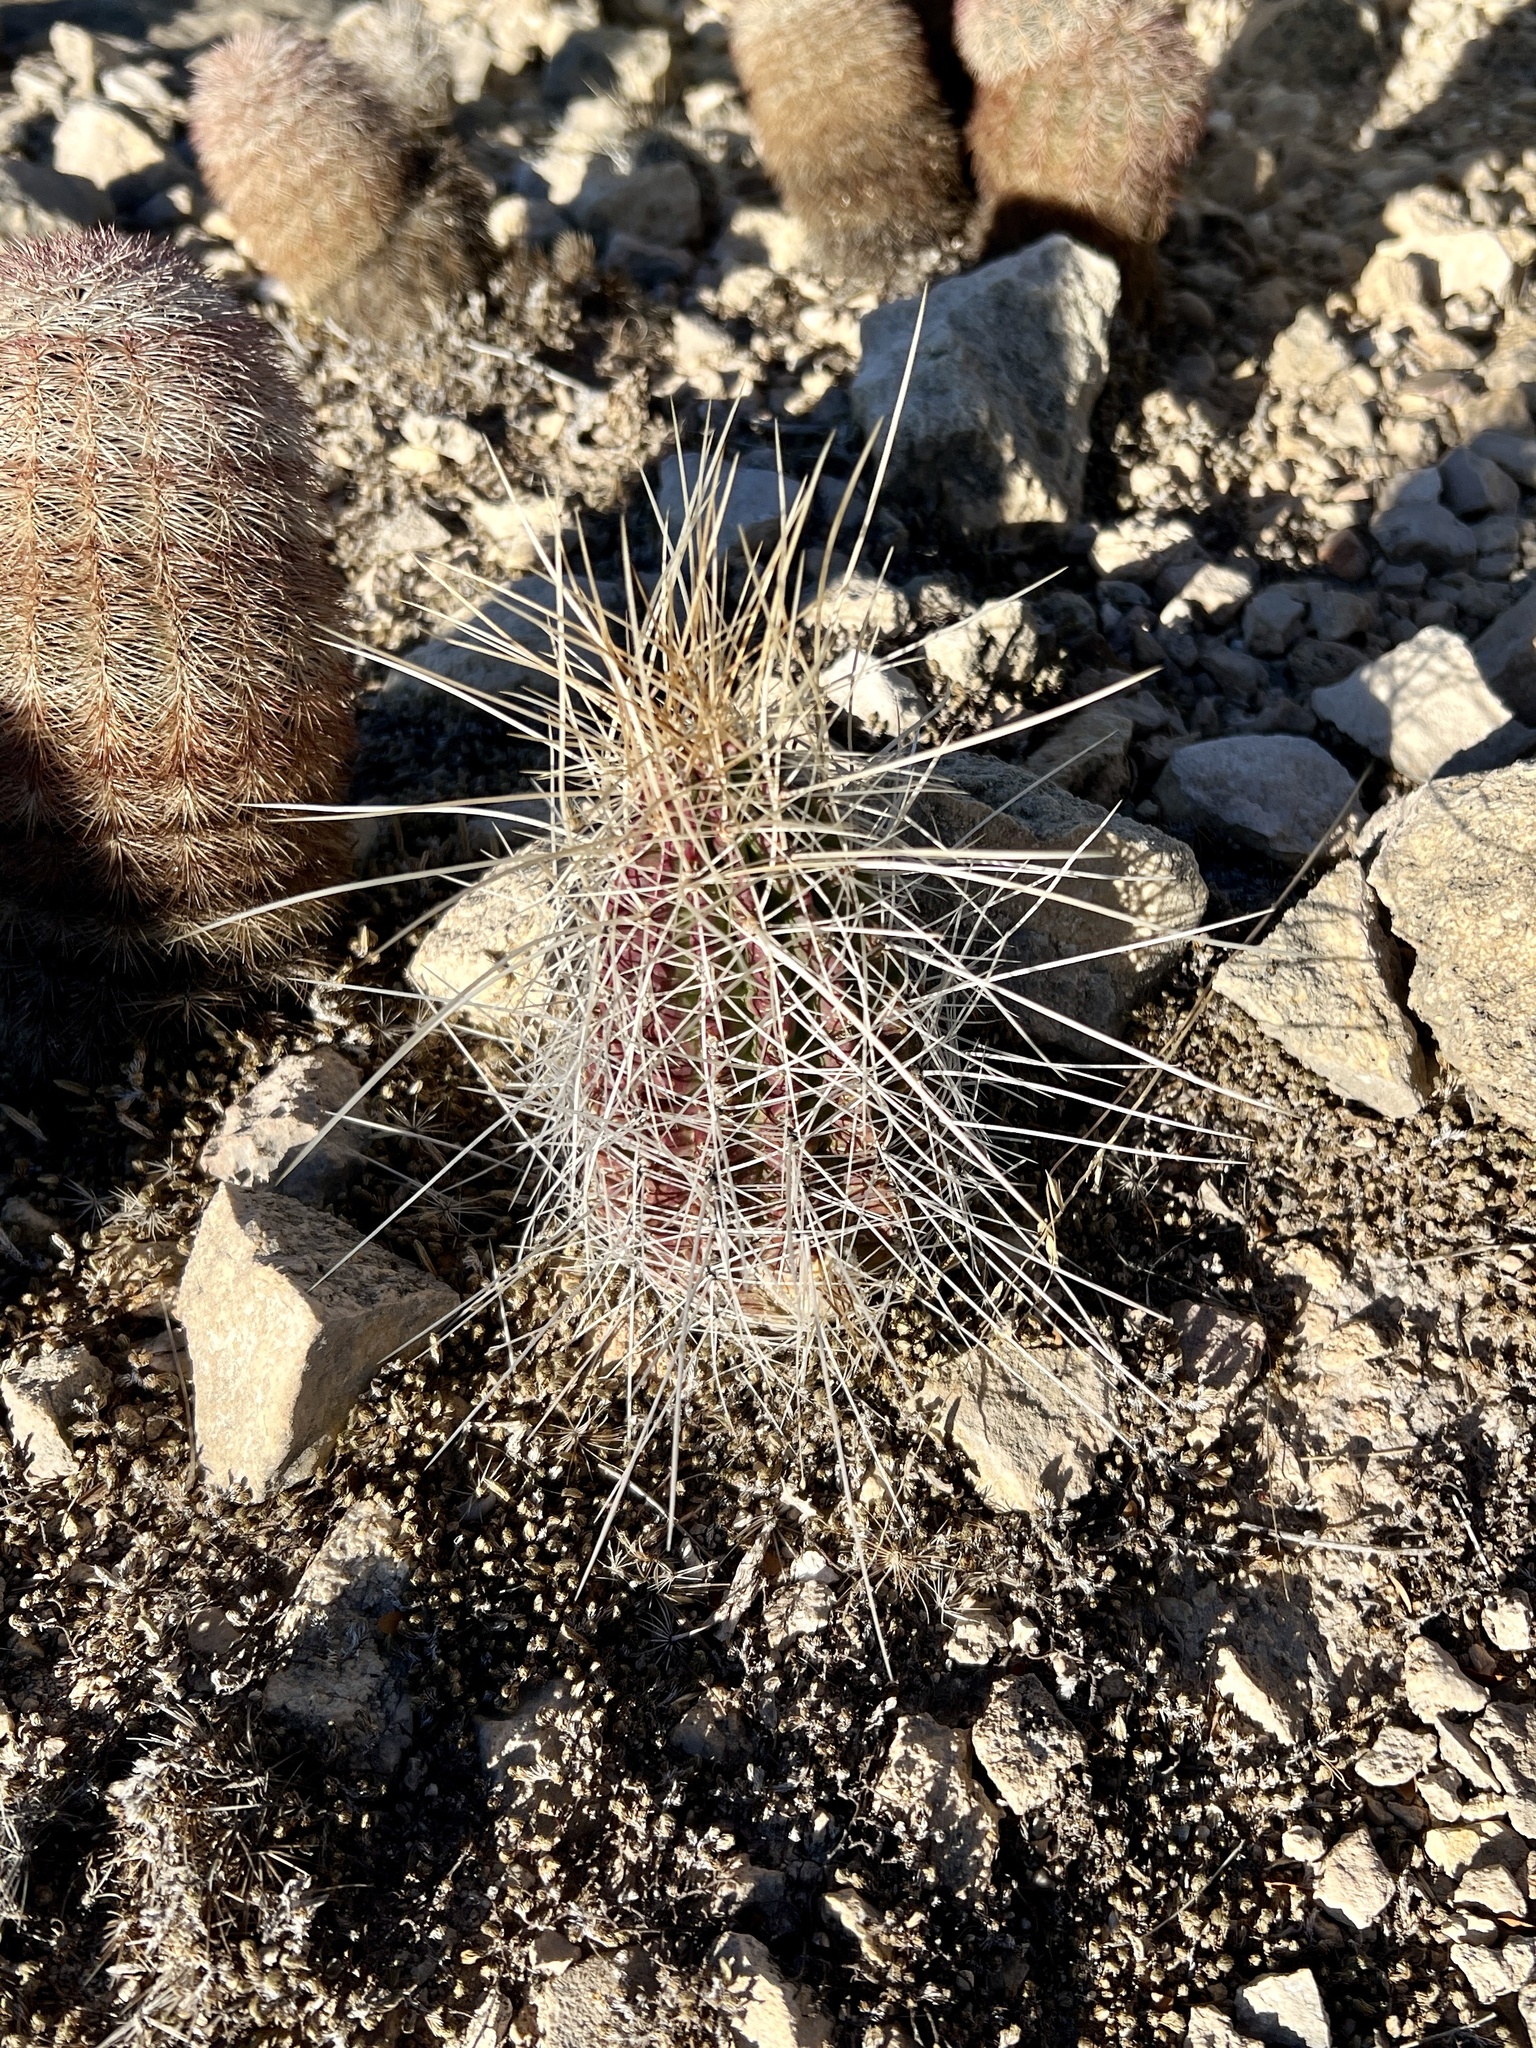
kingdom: Plantae
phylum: Tracheophyta
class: Magnoliopsida
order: Caryophyllales
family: Cactaceae
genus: Echinocereus
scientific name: Echinocereus stramineus
